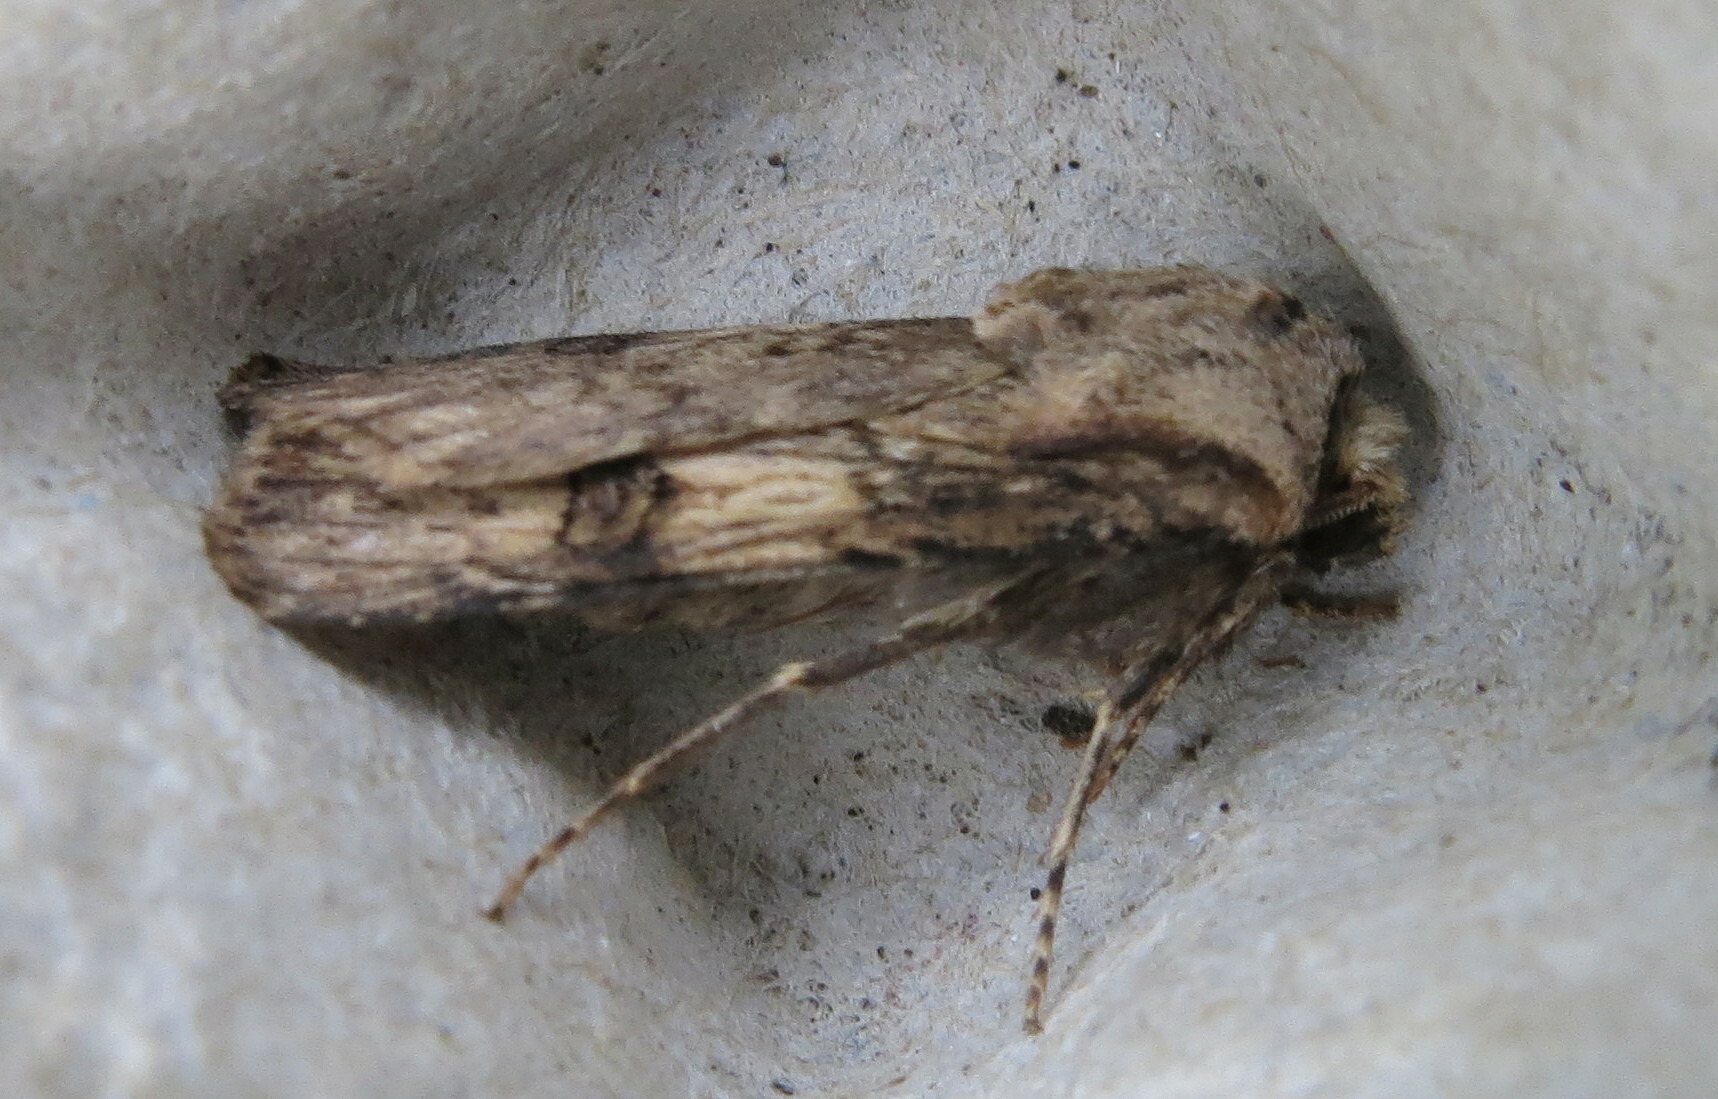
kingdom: Animalia
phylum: Arthropoda
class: Insecta
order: Lepidoptera
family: Noctuidae
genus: Agrotis
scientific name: Agrotis puta
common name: Shuttle-shaped dart
